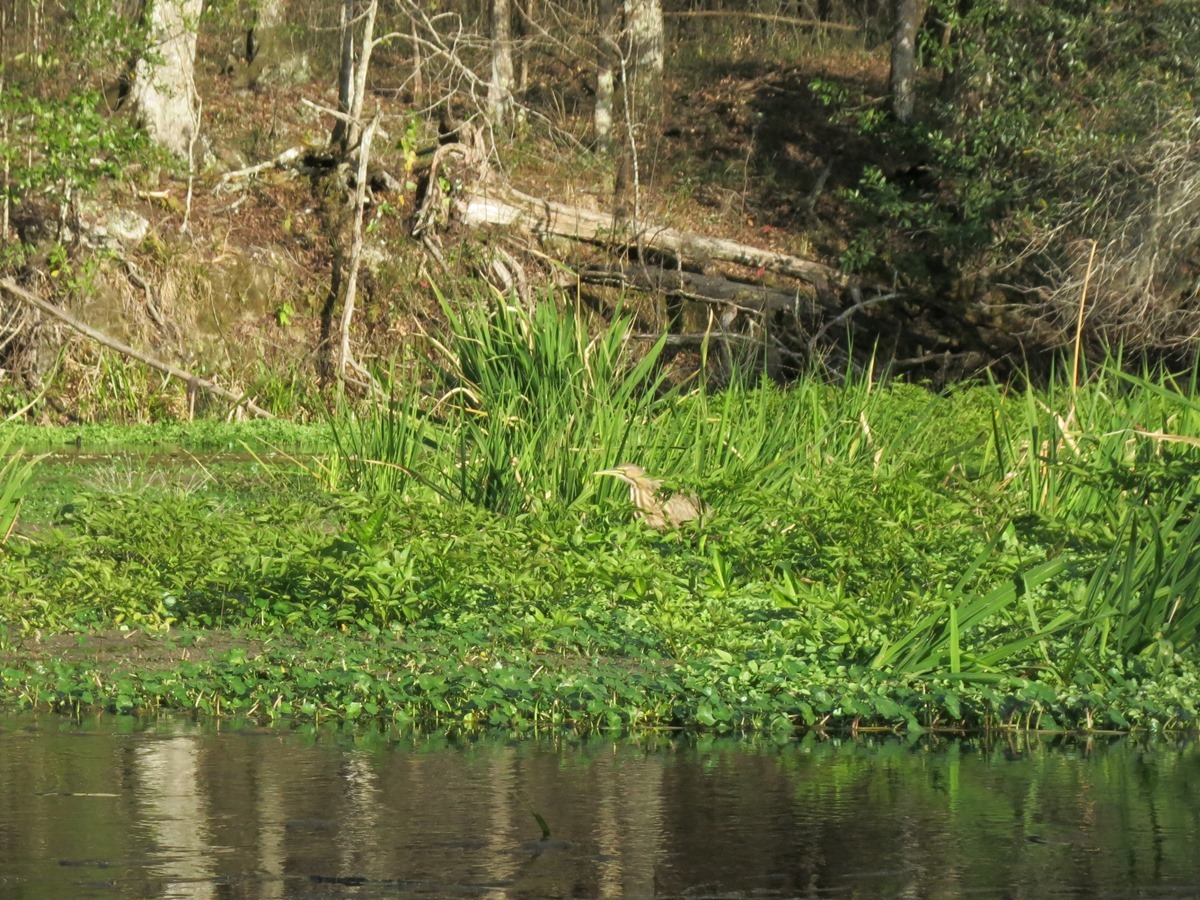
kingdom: Animalia
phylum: Chordata
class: Aves
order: Pelecaniformes
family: Ardeidae
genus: Botaurus
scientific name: Botaurus lentiginosus
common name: American bittern
